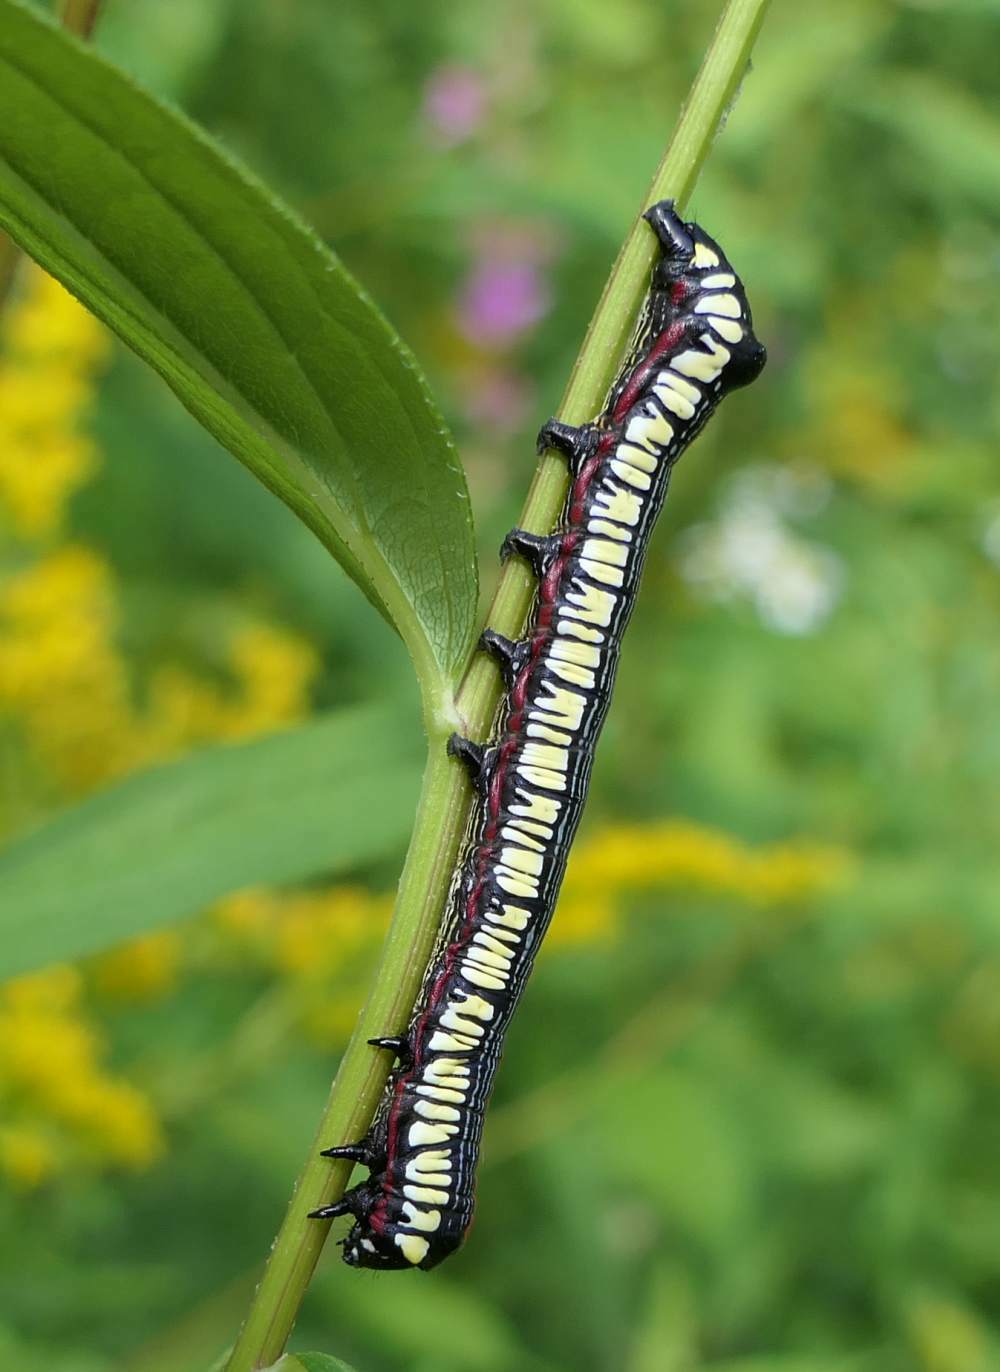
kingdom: Animalia
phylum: Arthropoda
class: Insecta
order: Lepidoptera
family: Noctuidae
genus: Cucullia
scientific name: Cucullia convexipennis
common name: Brown-hooded owlet
